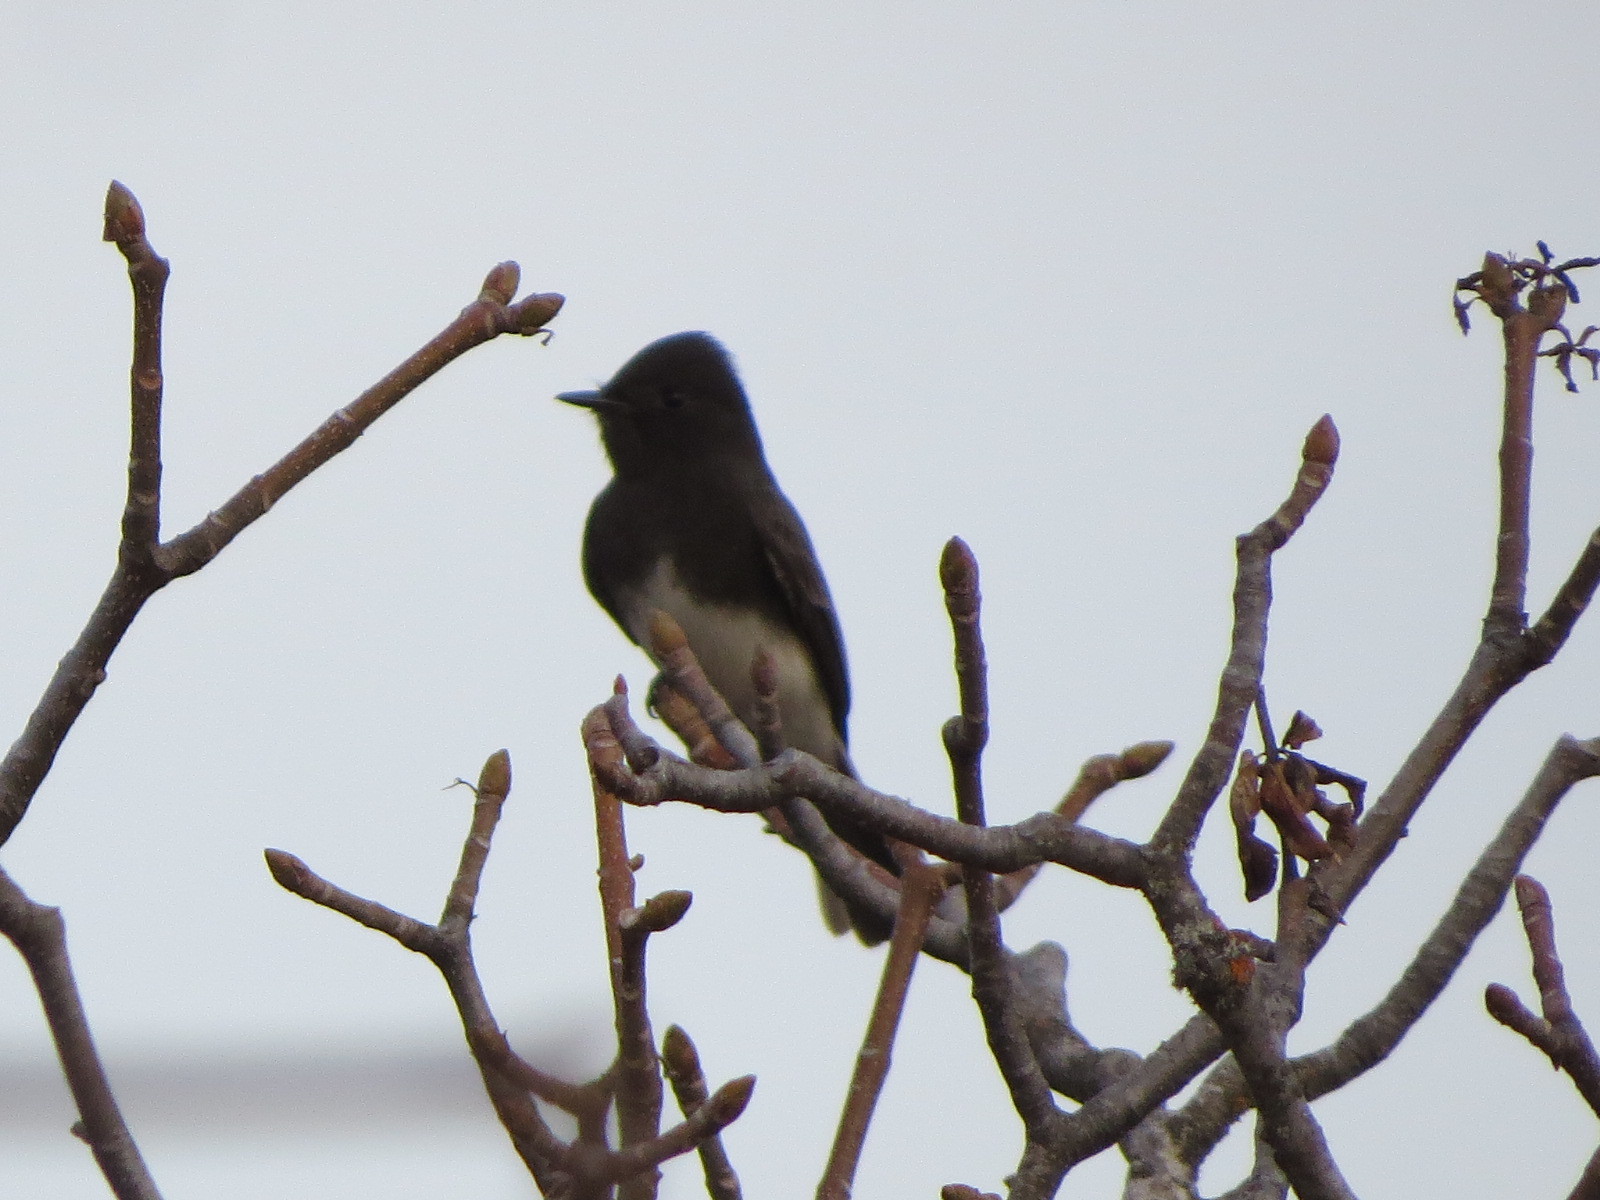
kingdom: Animalia
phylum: Chordata
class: Aves
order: Passeriformes
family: Tyrannidae
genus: Sayornis
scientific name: Sayornis nigricans
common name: Black phoebe
